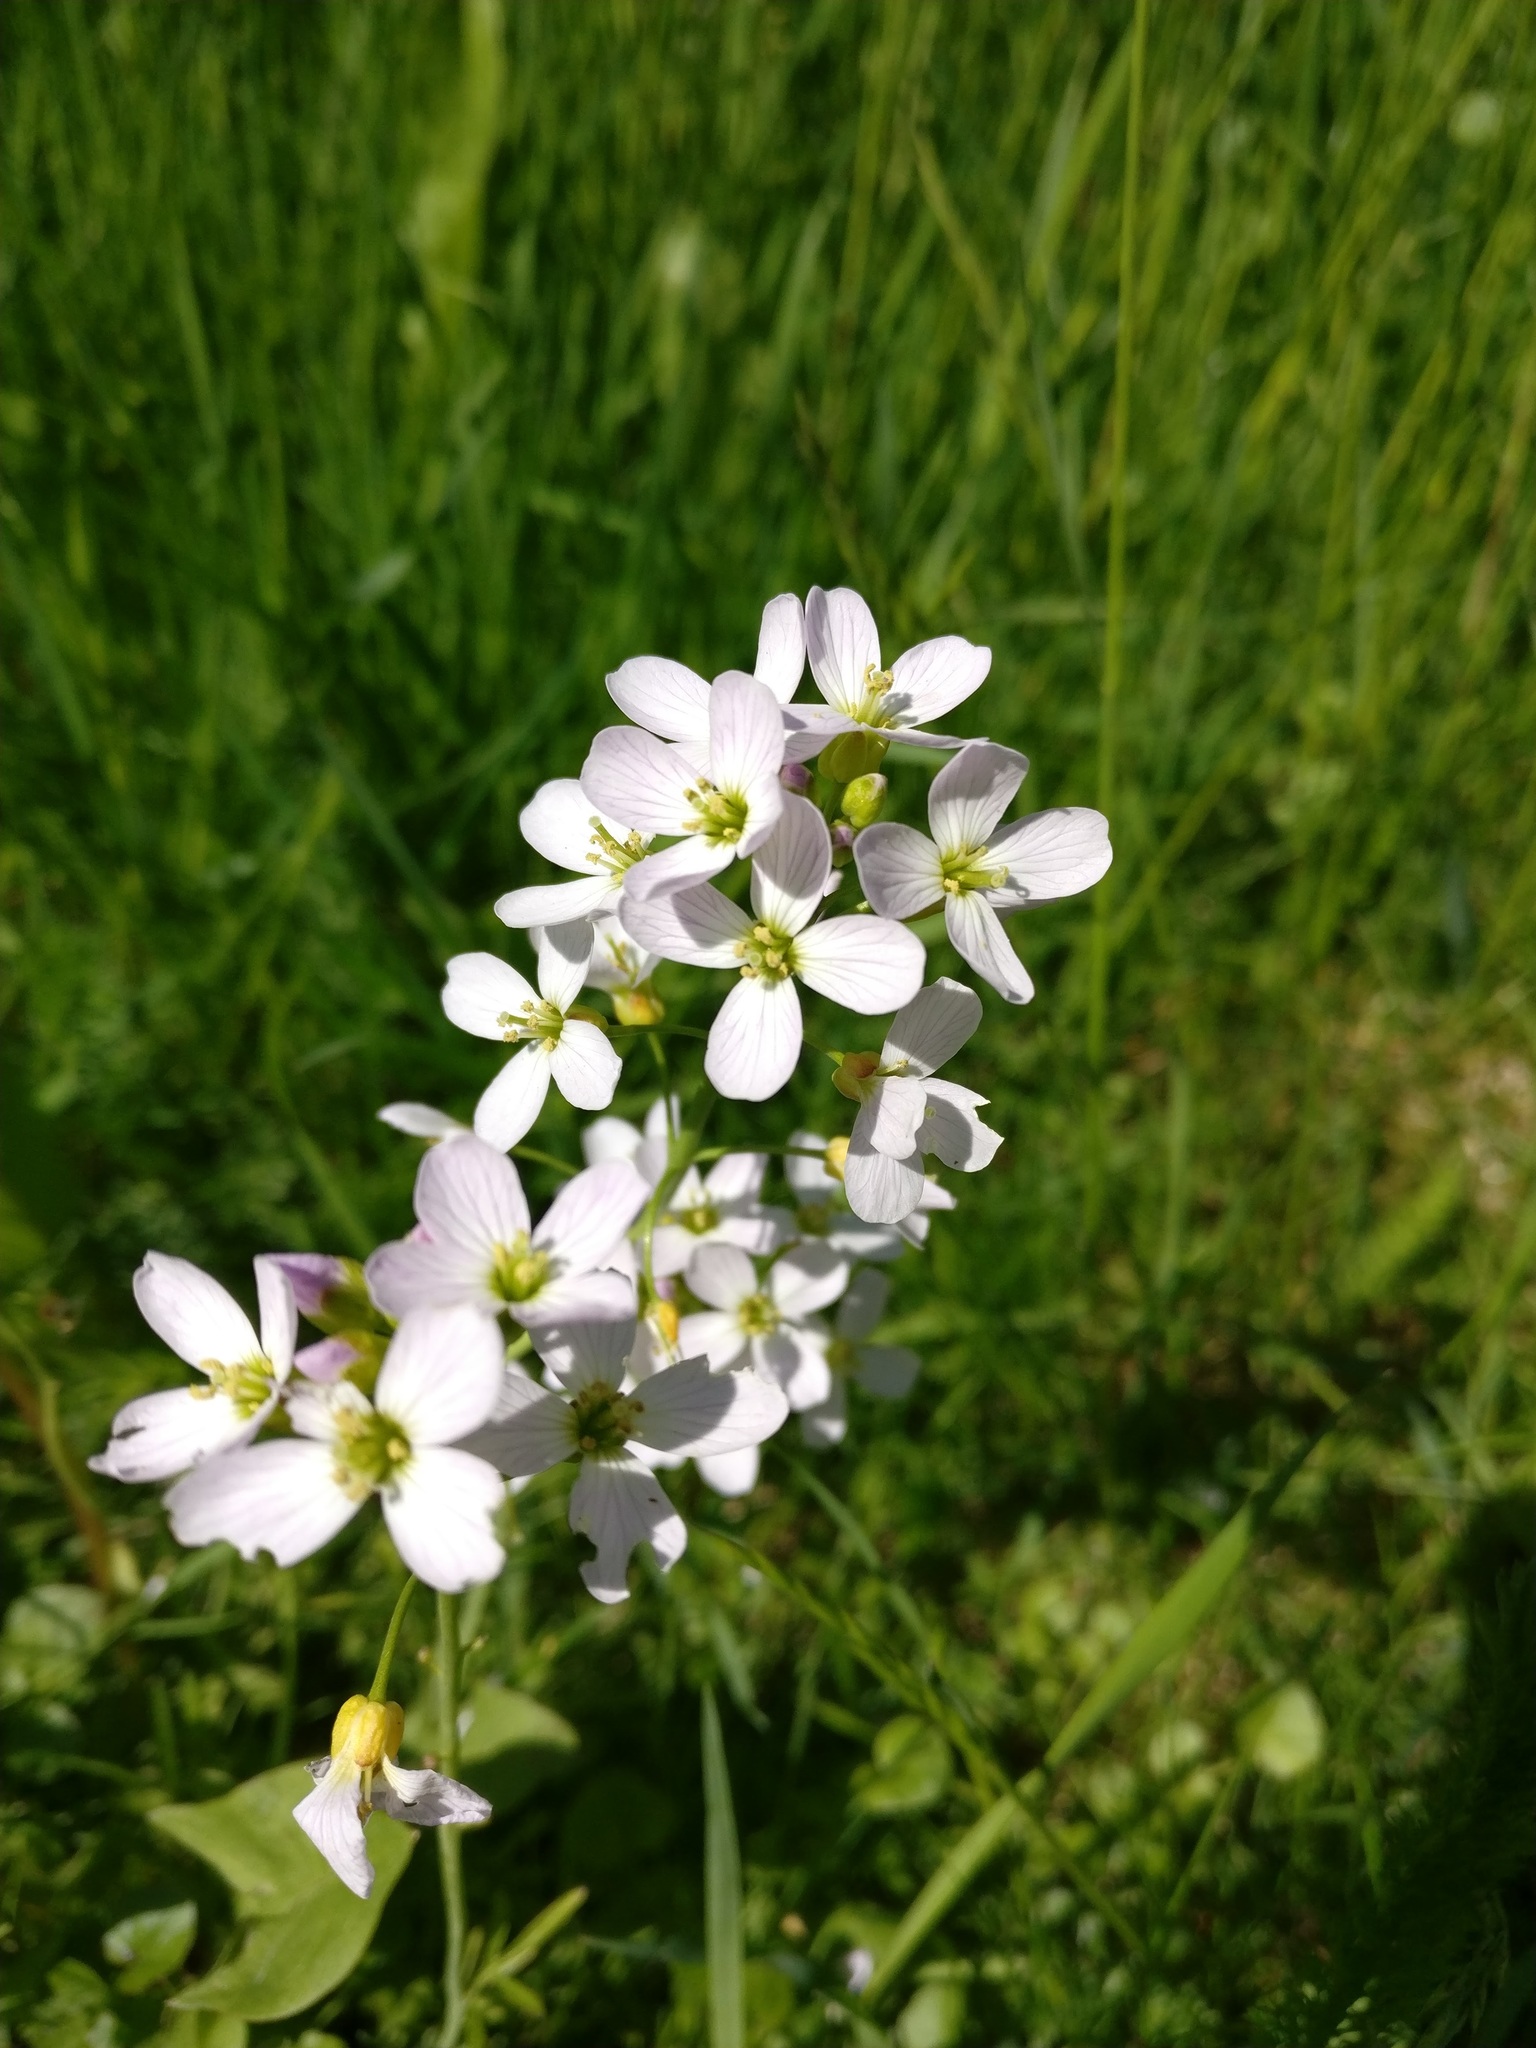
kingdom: Plantae
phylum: Tracheophyta
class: Magnoliopsida
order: Brassicales
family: Brassicaceae
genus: Cardamine
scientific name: Cardamine pratensis
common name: Cuckoo flower
